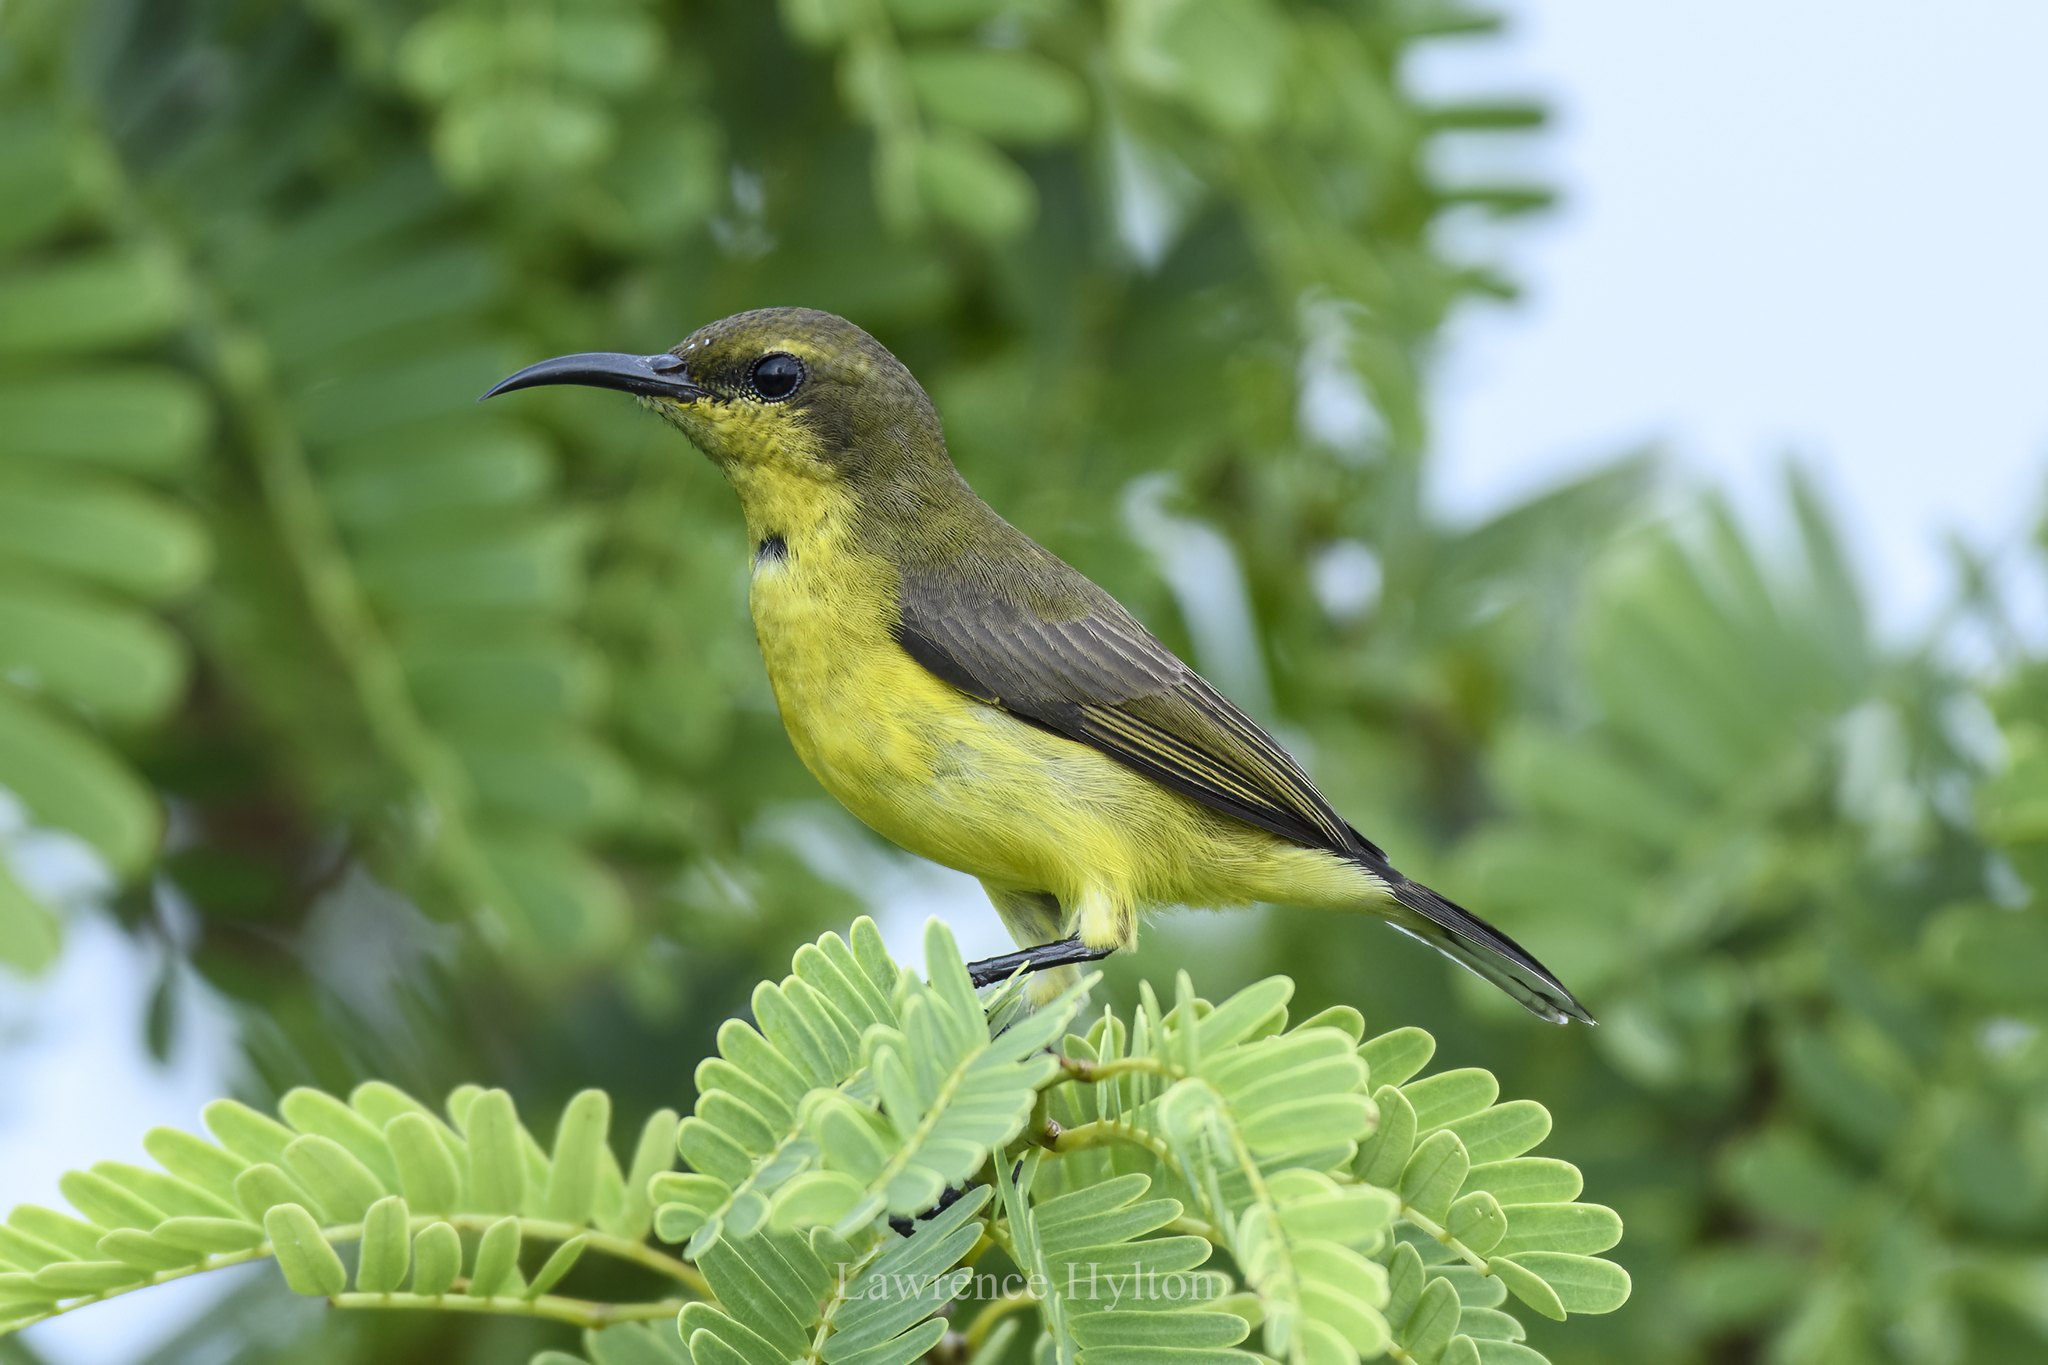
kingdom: Animalia
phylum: Chordata
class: Aves
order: Passeriformes
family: Nectariniidae
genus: Cinnyris
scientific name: Cinnyris
